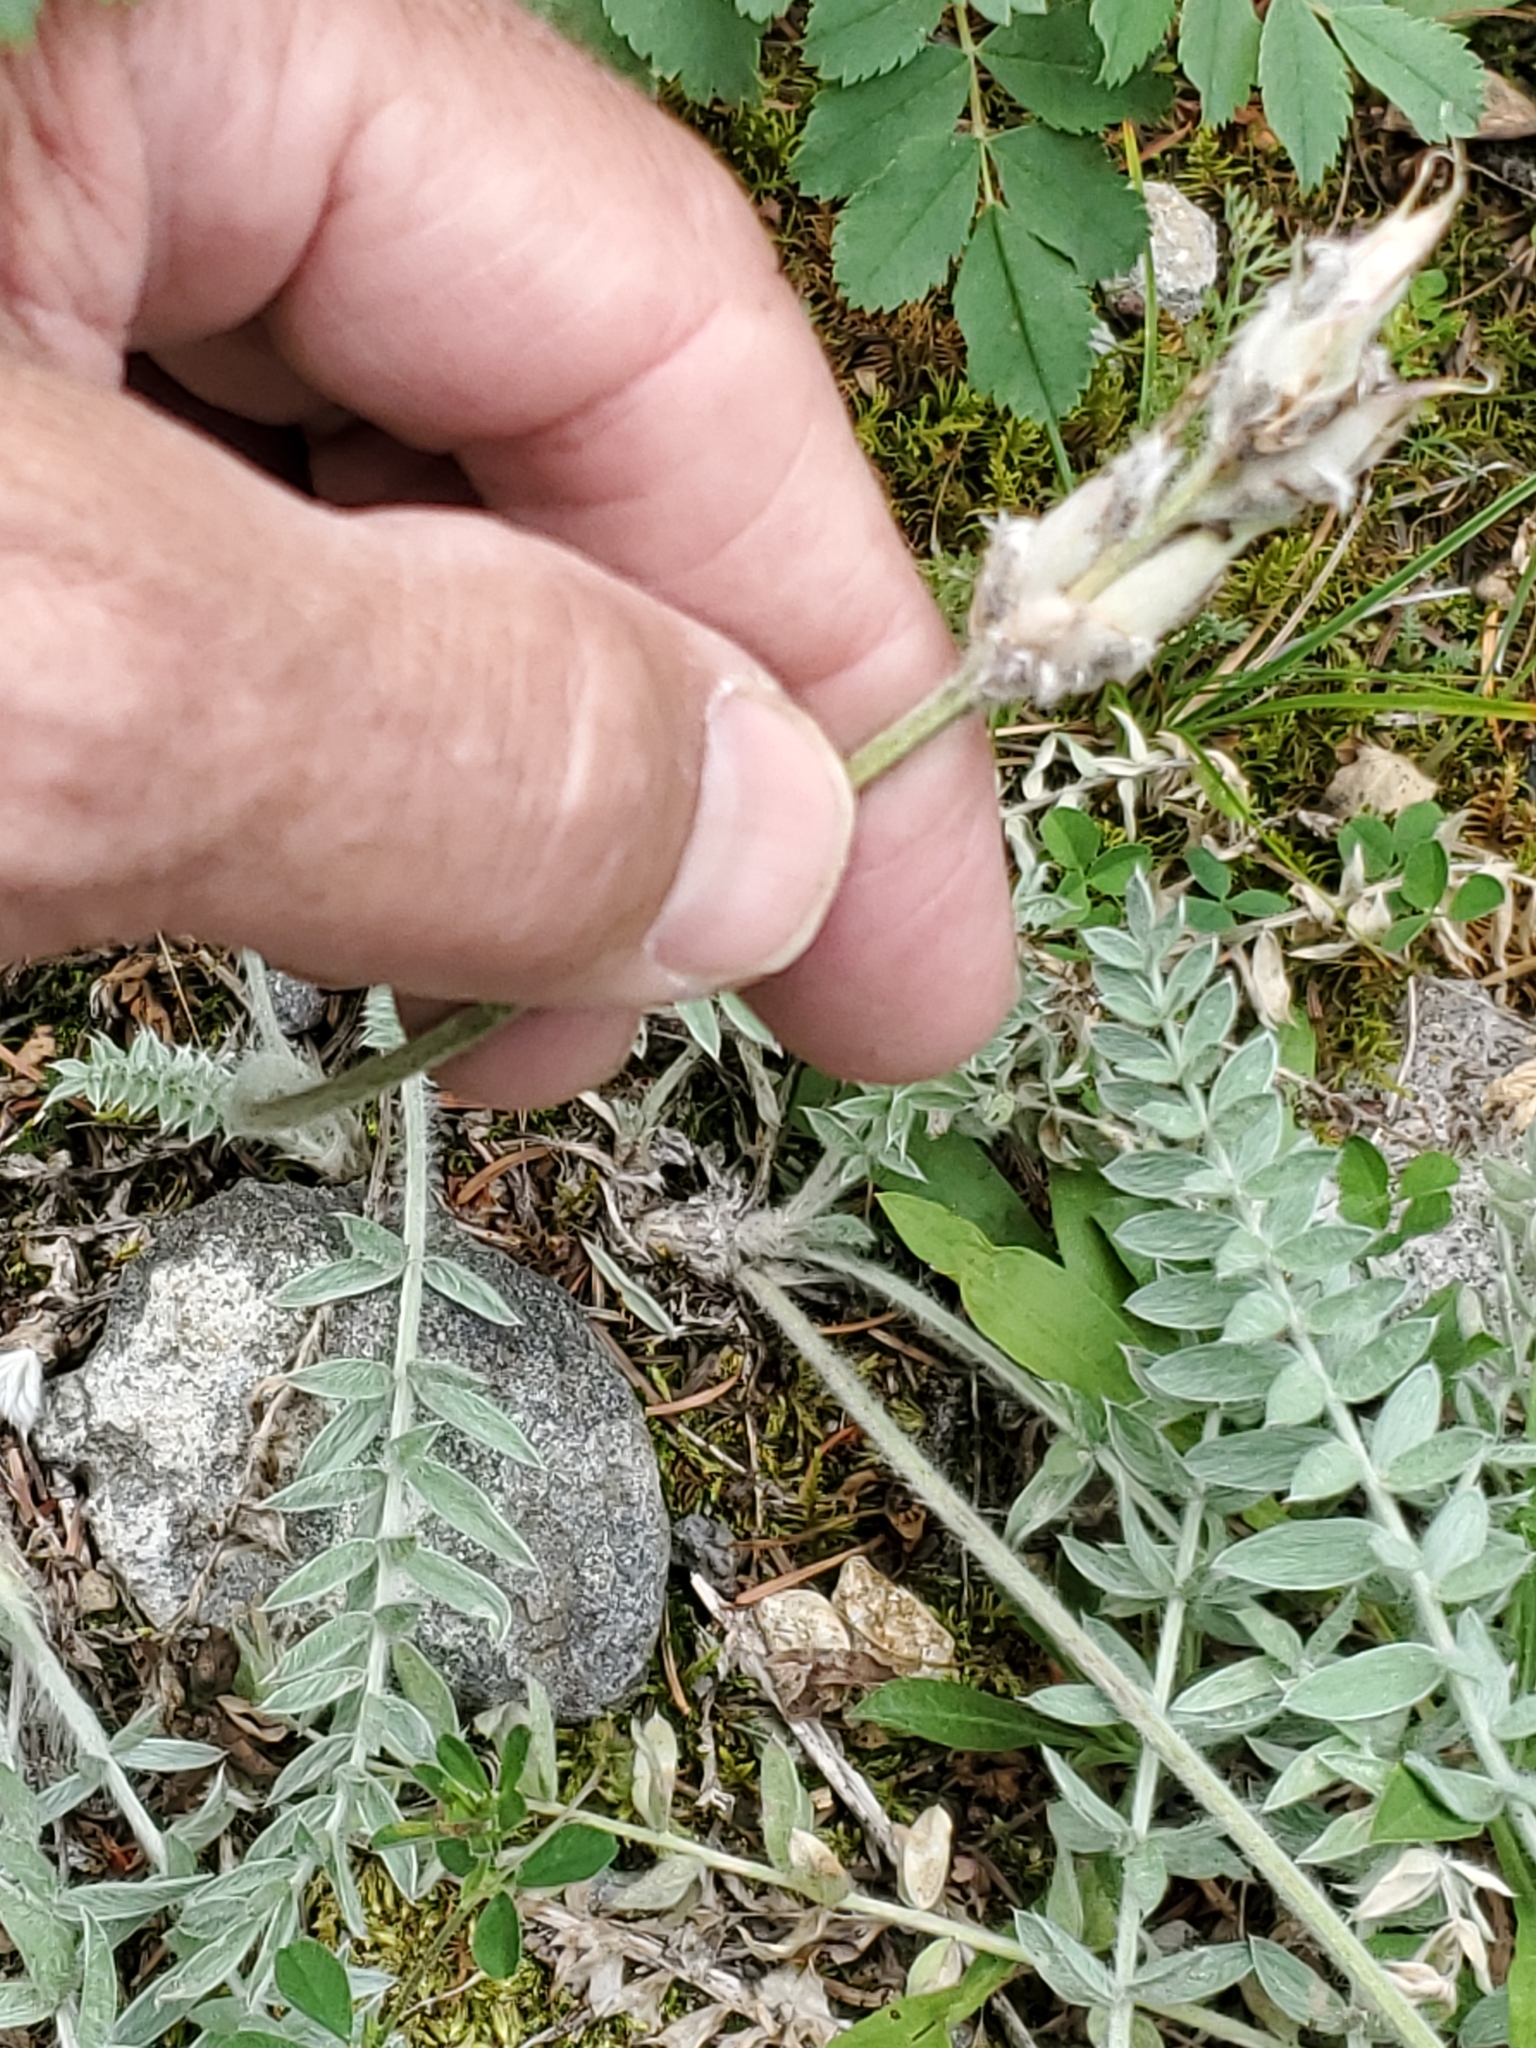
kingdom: Plantae
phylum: Tracheophyta
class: Magnoliopsida
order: Fabales
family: Fabaceae
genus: Oxytropis
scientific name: Oxytropis splendens
